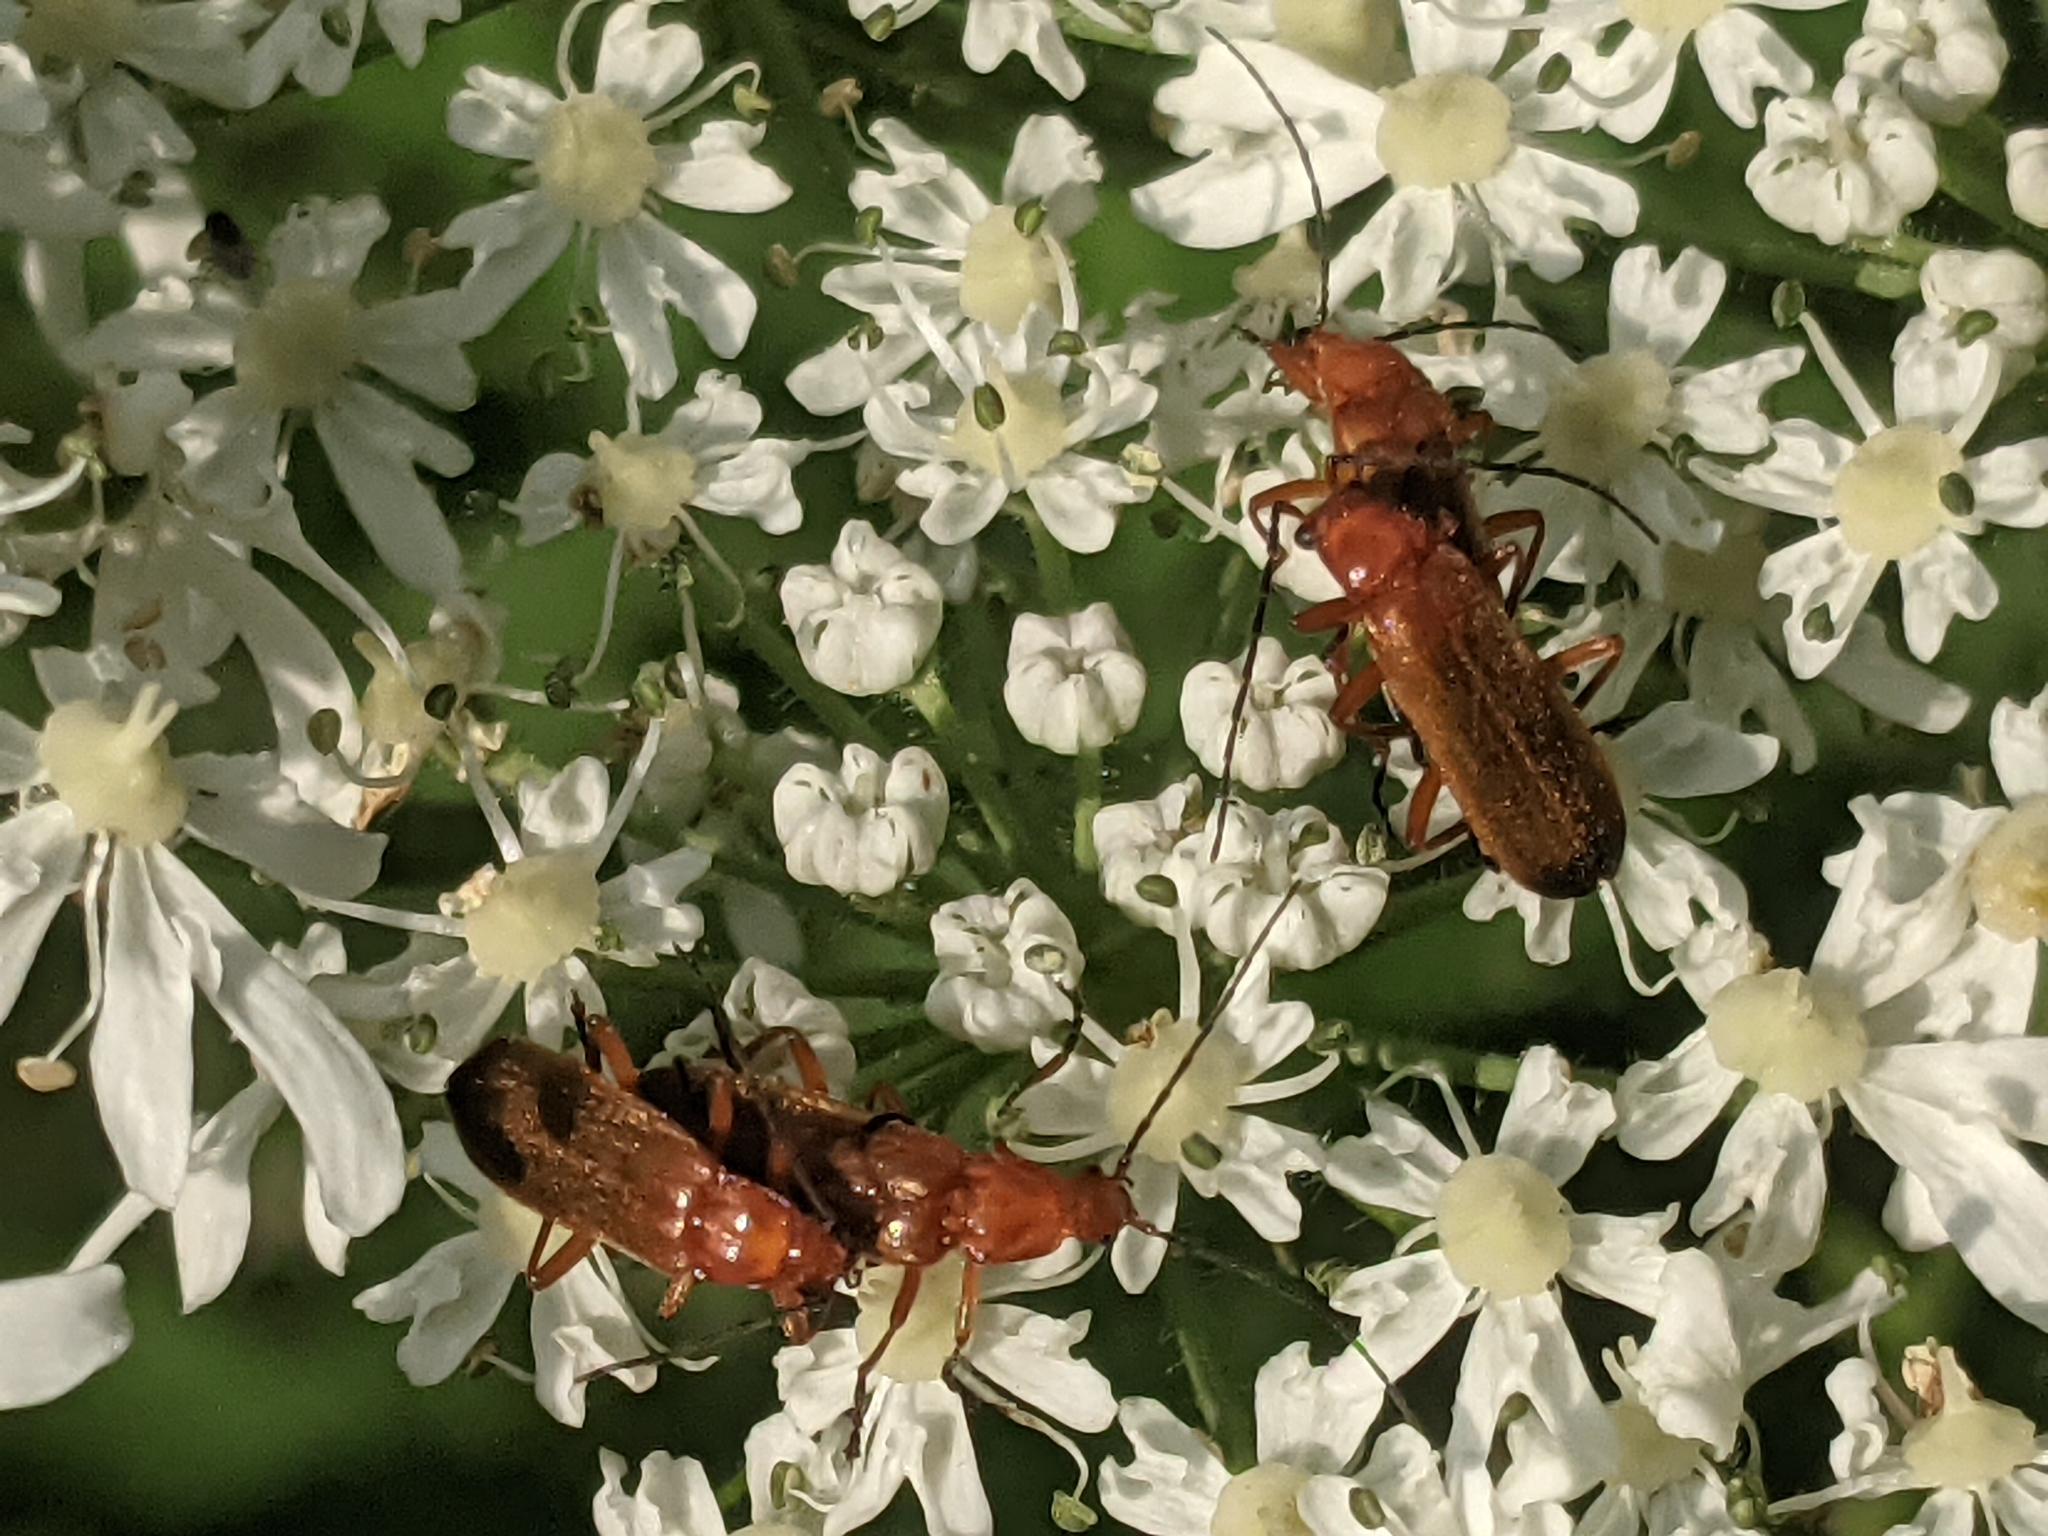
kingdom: Animalia
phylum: Arthropoda
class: Insecta
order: Coleoptera
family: Cantharidae
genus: Rhagonycha
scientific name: Rhagonycha fulva
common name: Common red soldier beetle
